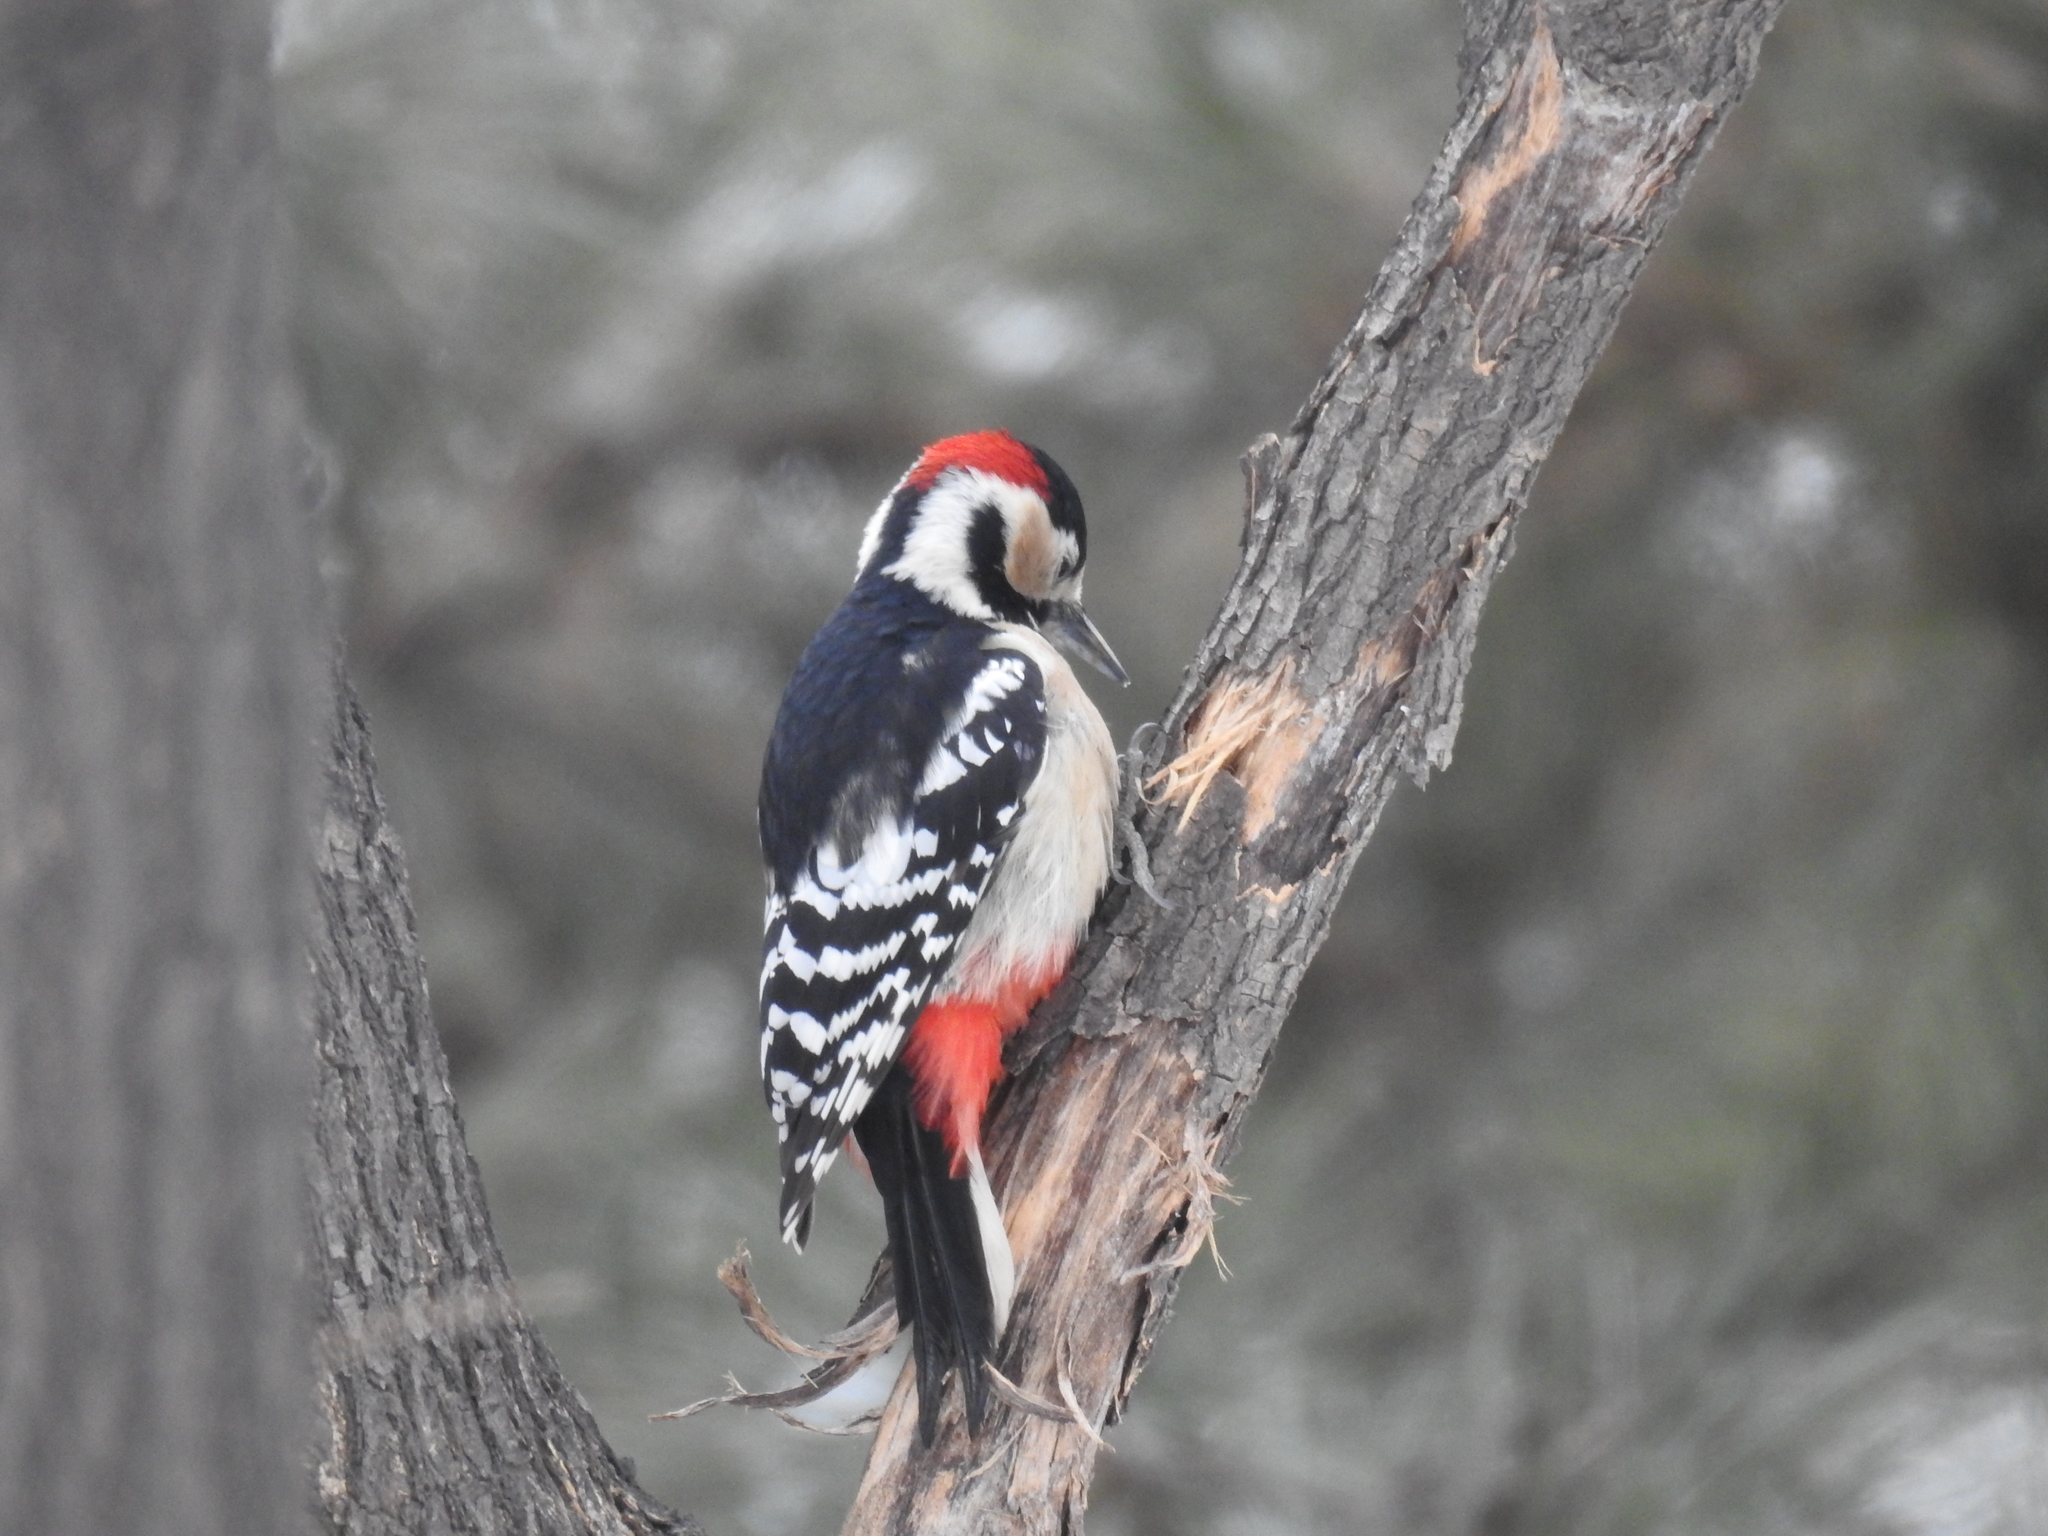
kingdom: Animalia
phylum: Chordata
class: Aves
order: Piciformes
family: Picidae
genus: Dendrocopos
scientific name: Dendrocopos major
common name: Great spotted woodpecker
